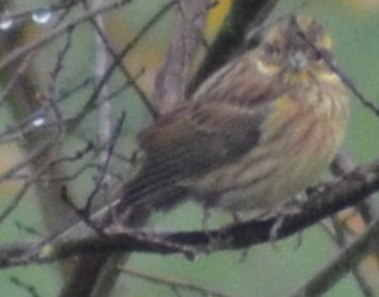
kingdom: Animalia
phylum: Chordata
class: Aves
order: Passeriformes
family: Emberizidae
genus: Emberiza
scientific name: Emberiza cirlus
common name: Cirl bunting
